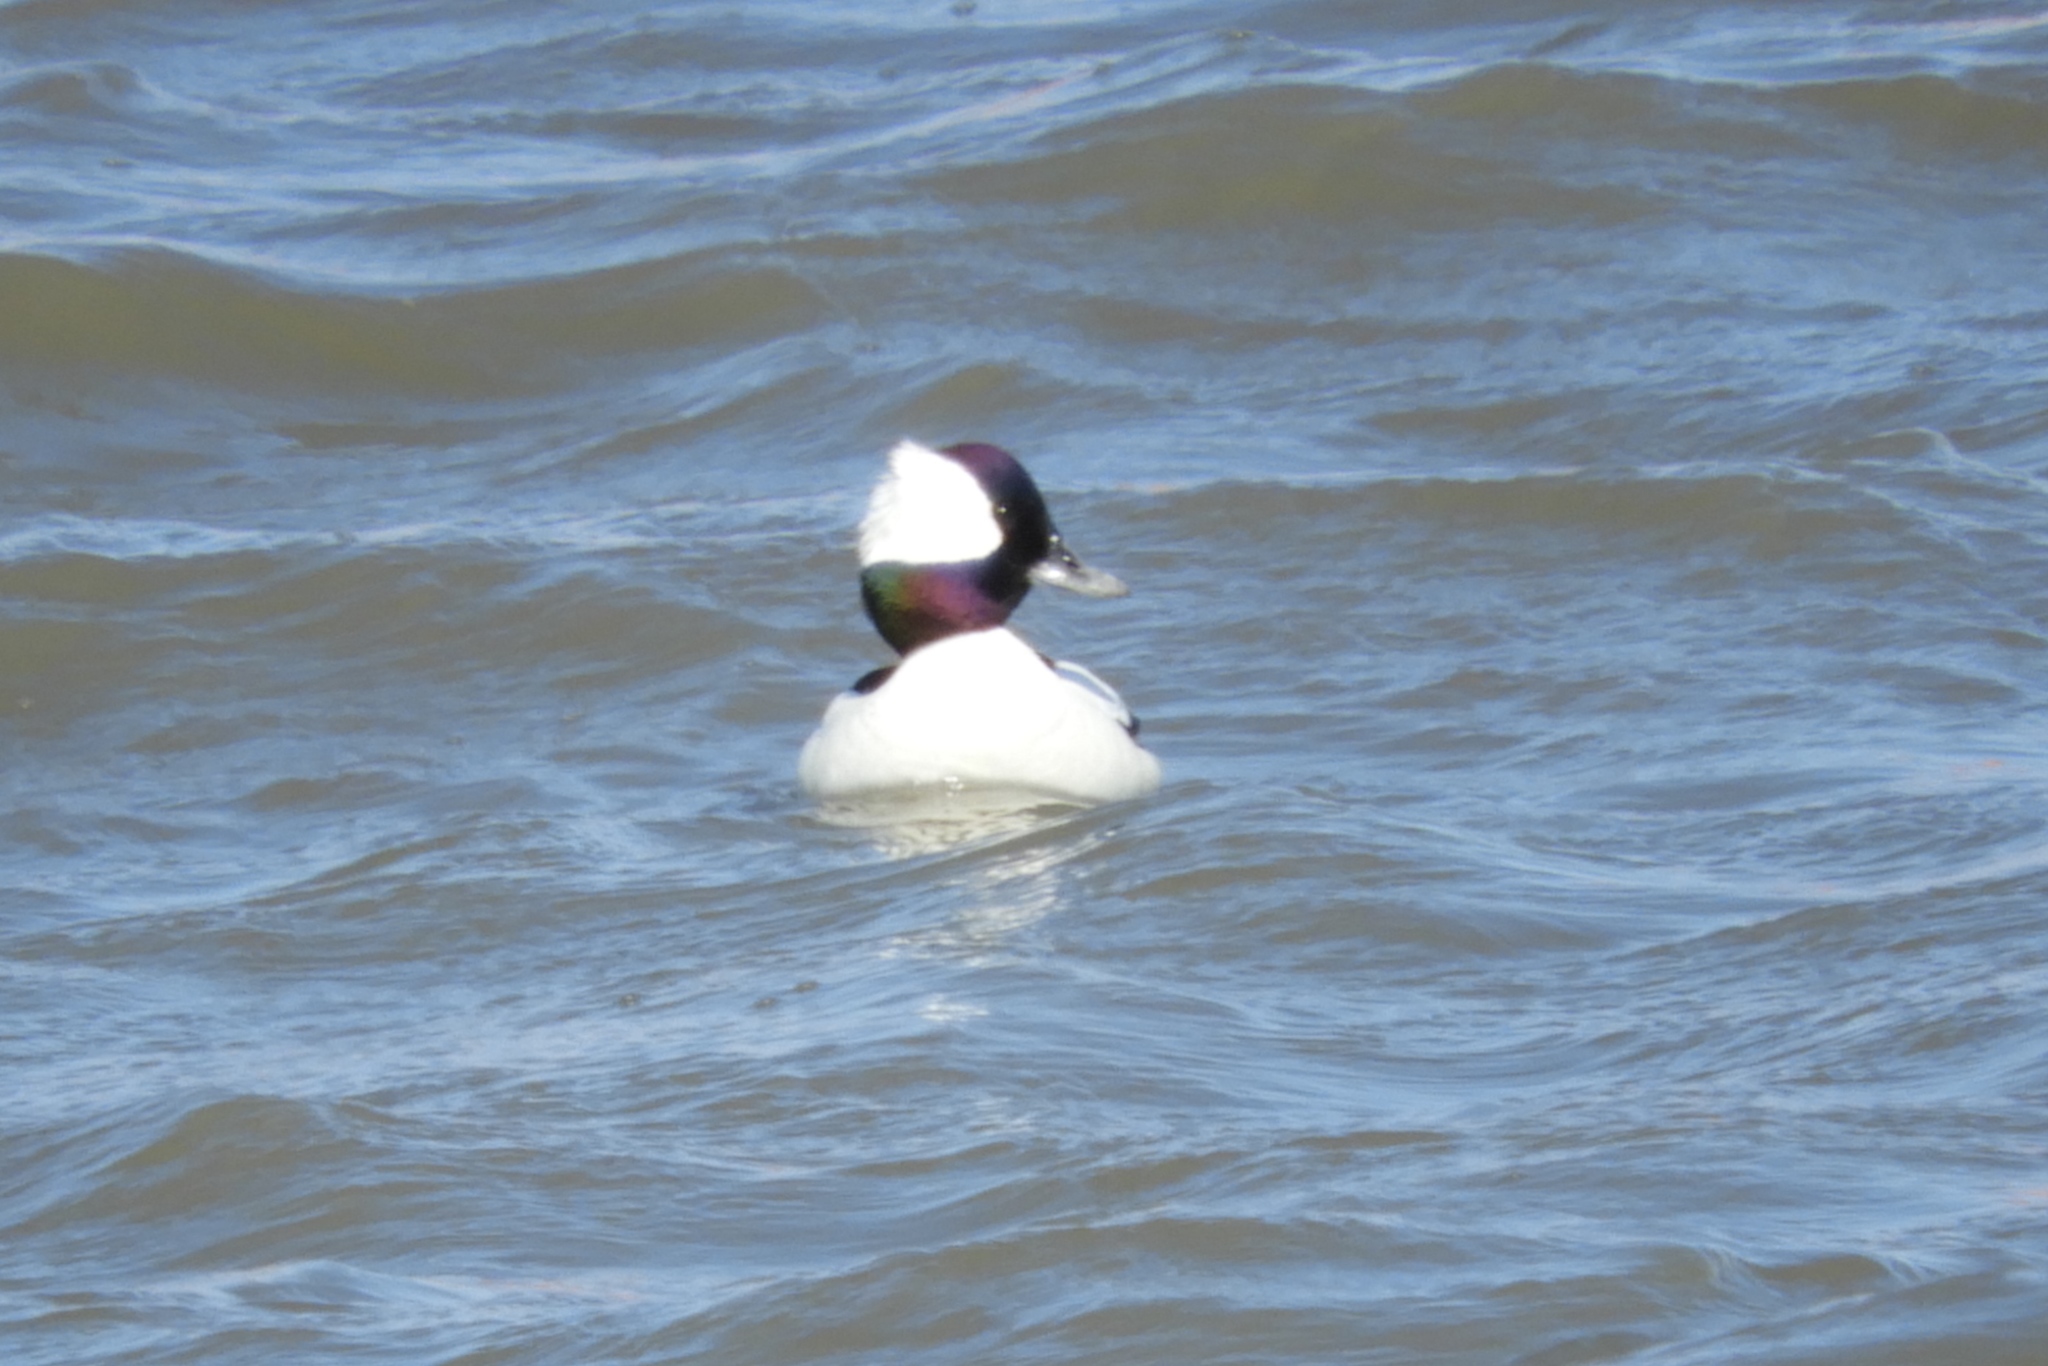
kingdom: Animalia
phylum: Chordata
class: Aves
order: Anseriformes
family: Anatidae
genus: Bucephala
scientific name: Bucephala albeola
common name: Bufflehead
